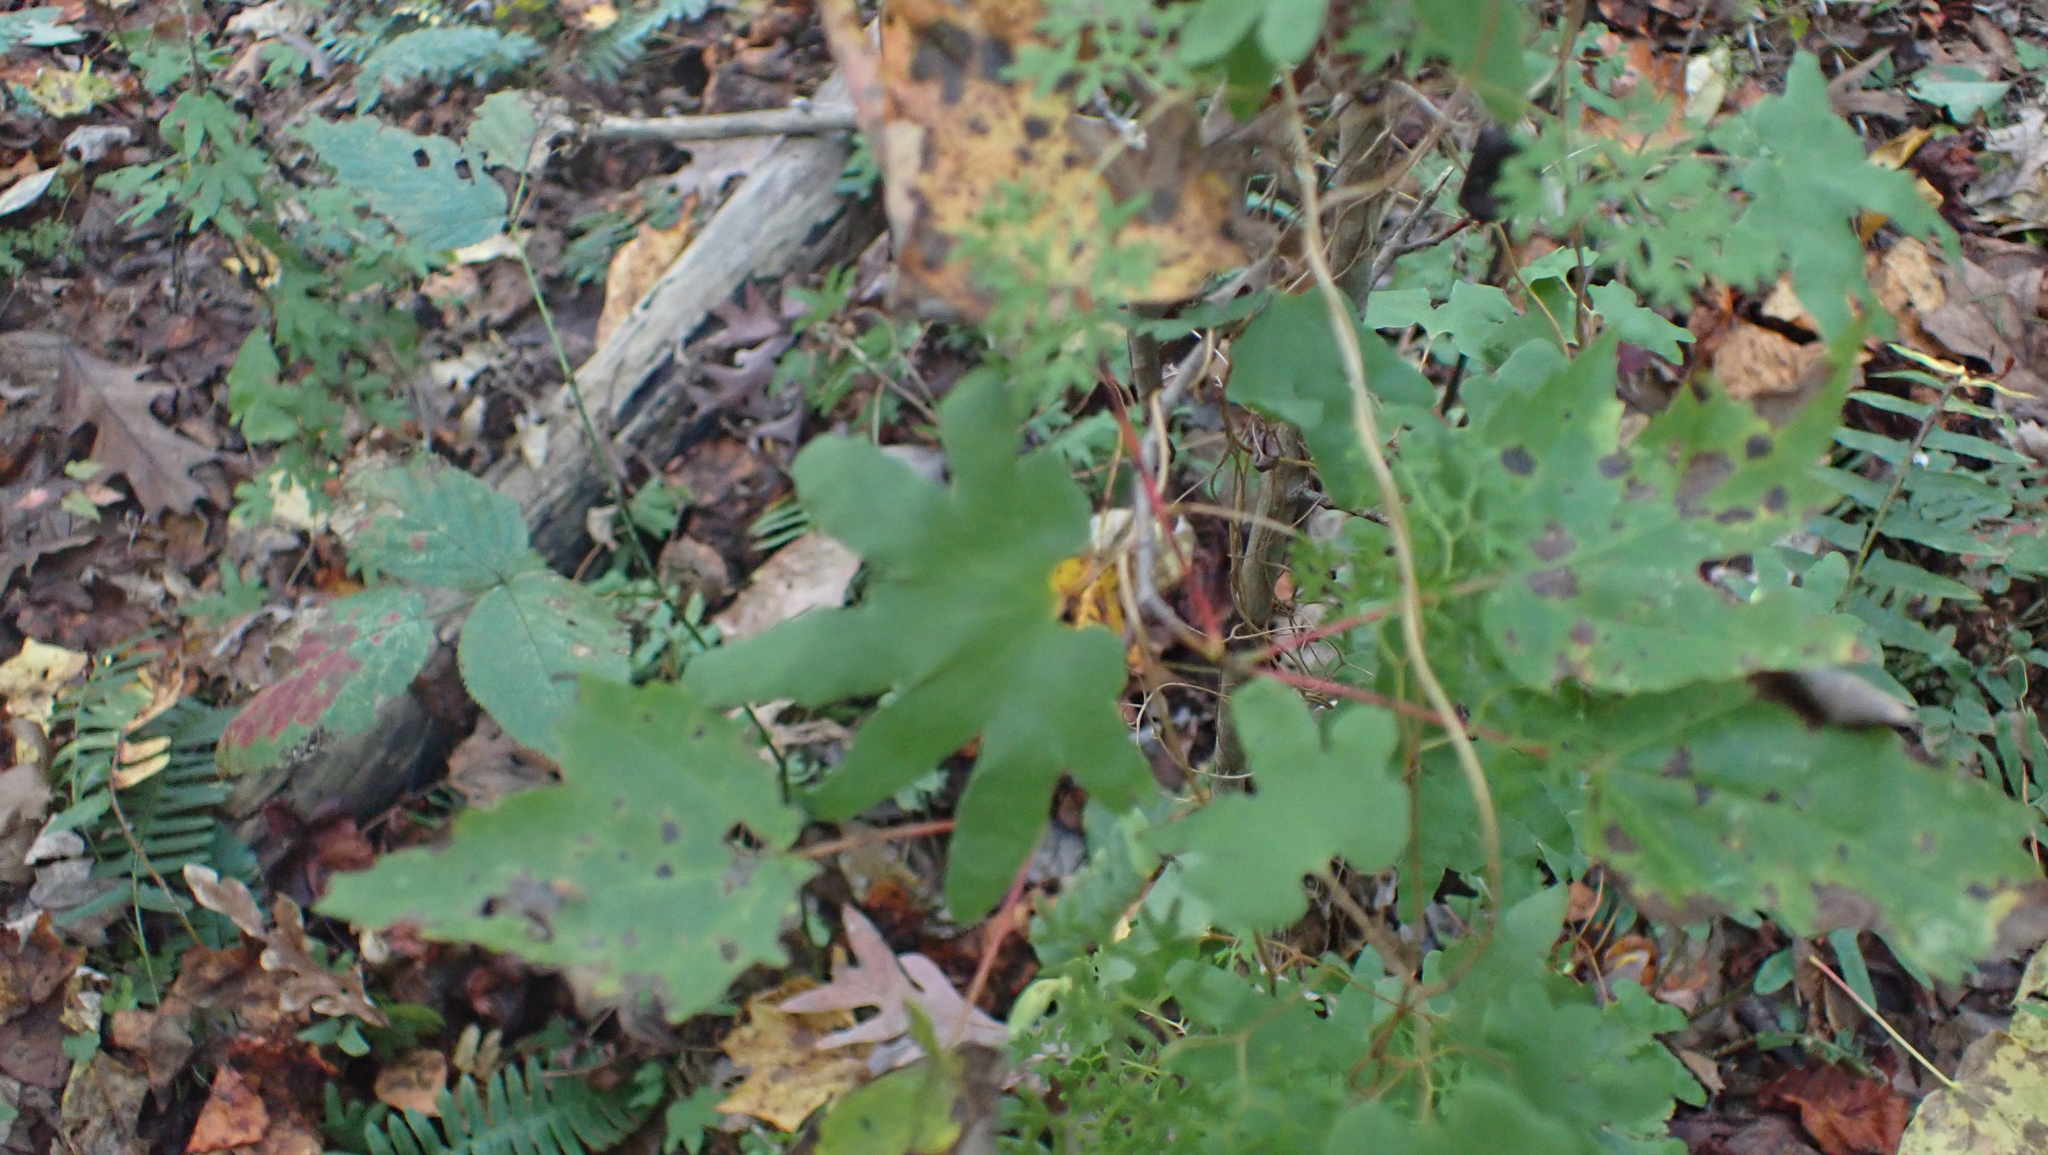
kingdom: Plantae
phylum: Tracheophyta
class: Polypodiopsida
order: Schizaeales
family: Lygodiaceae
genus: Lygodium
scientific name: Lygodium palmatum
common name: American climbing fern
